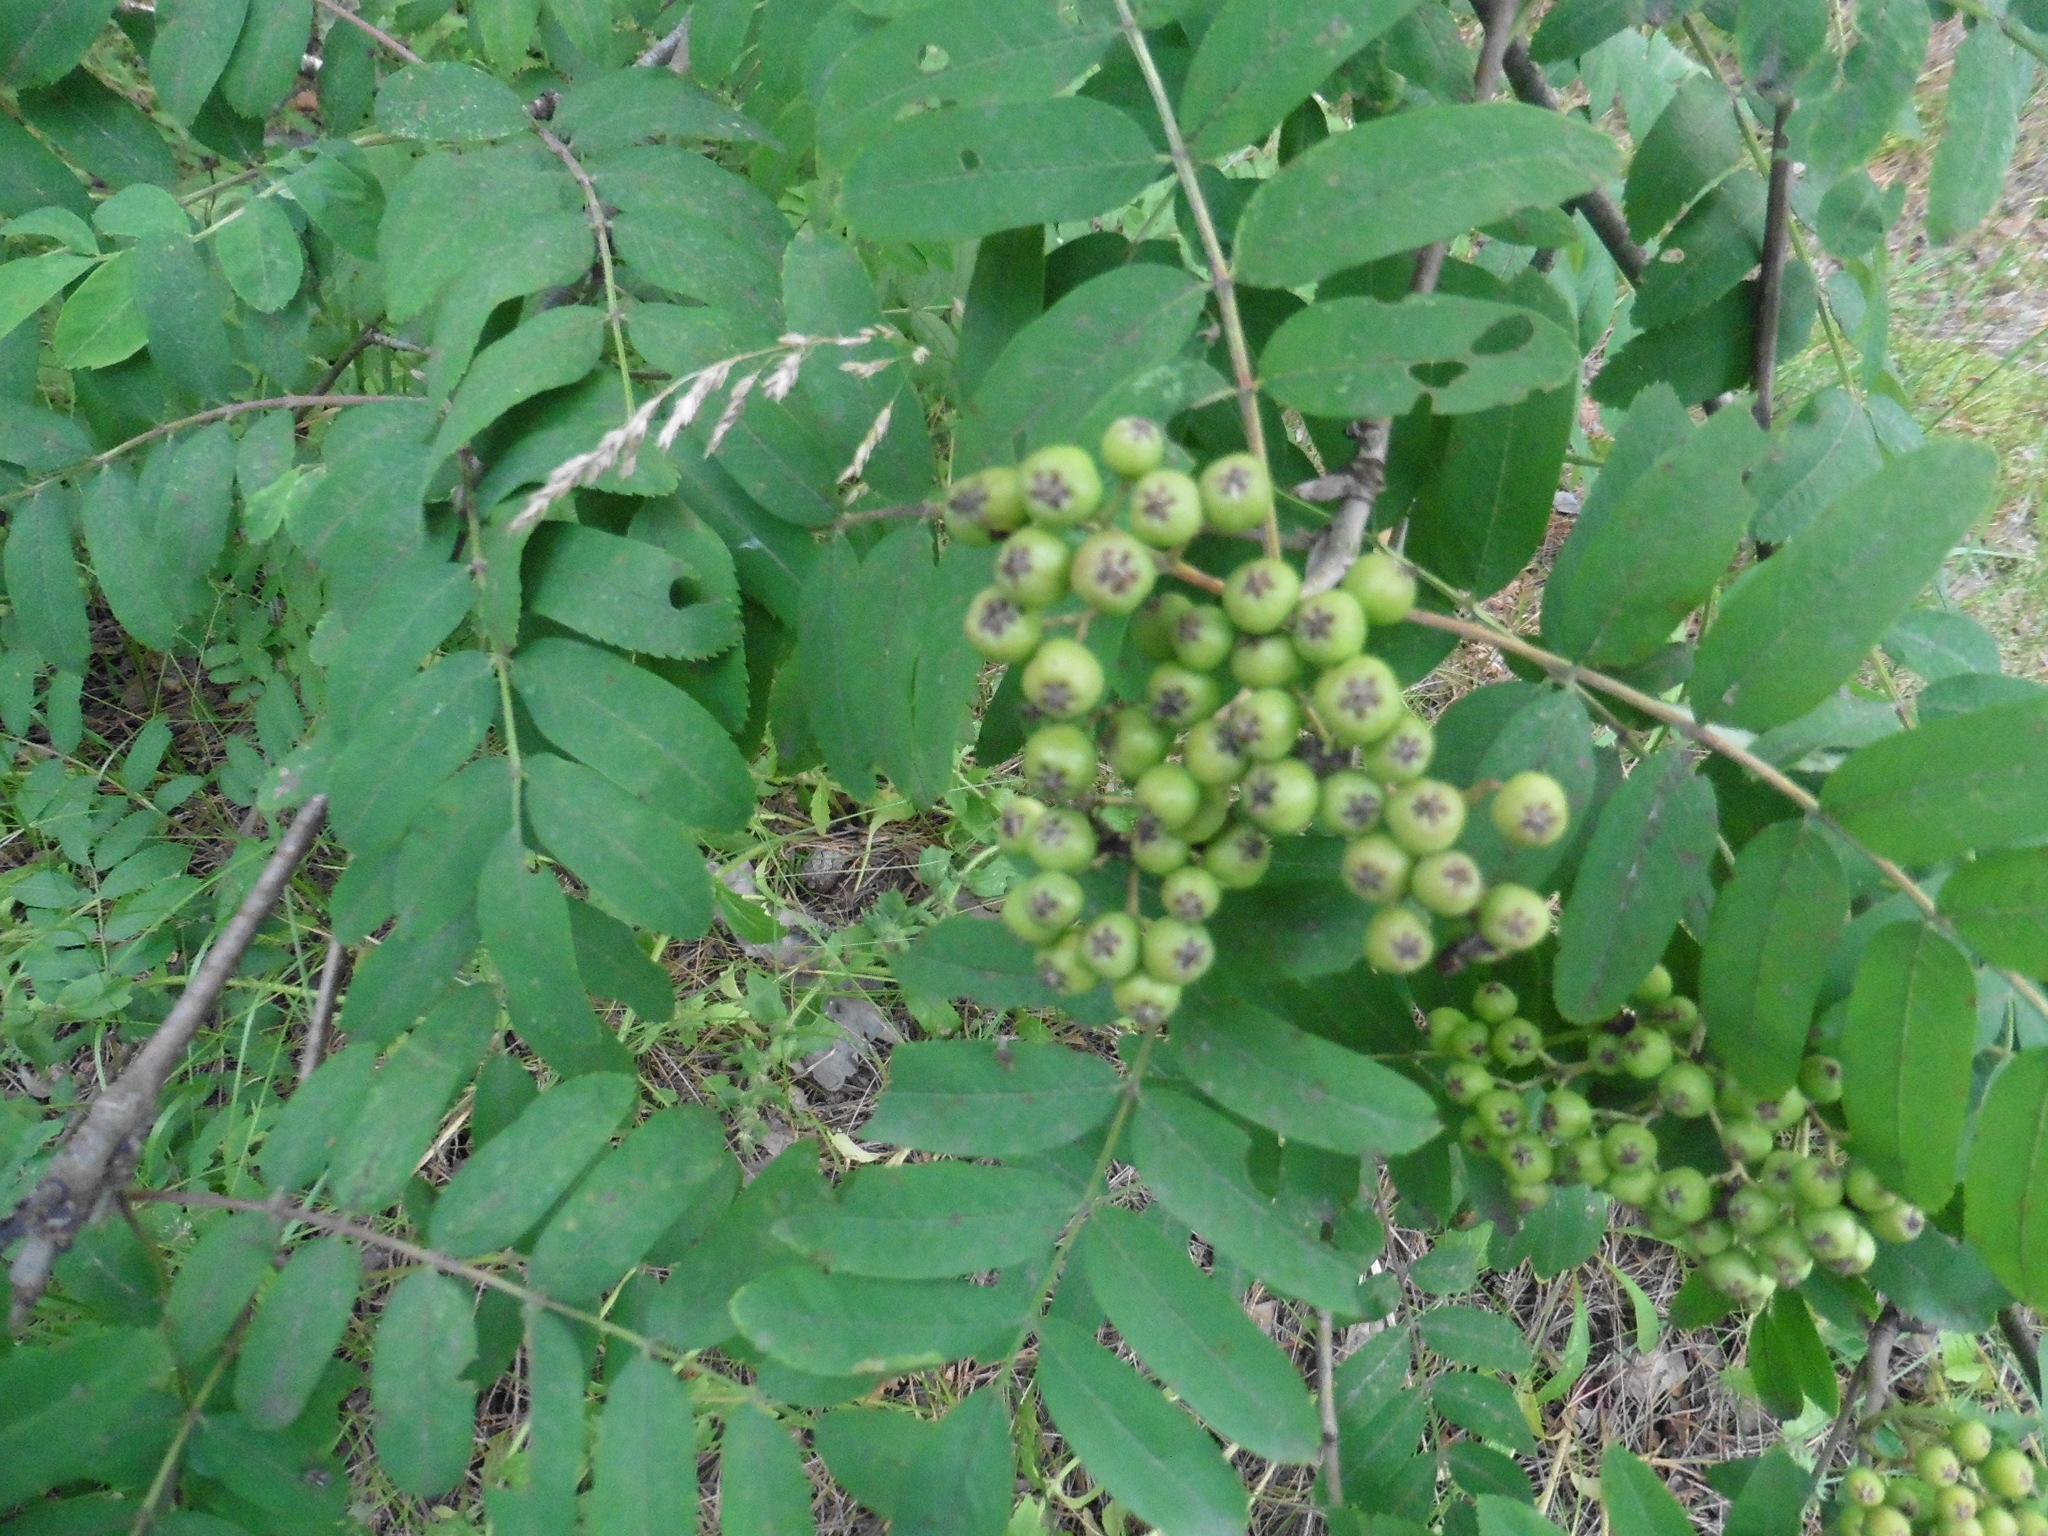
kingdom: Plantae
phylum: Tracheophyta
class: Magnoliopsida
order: Rosales
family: Rosaceae
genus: Sorbus
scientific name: Sorbus aucuparia
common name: Rowan
